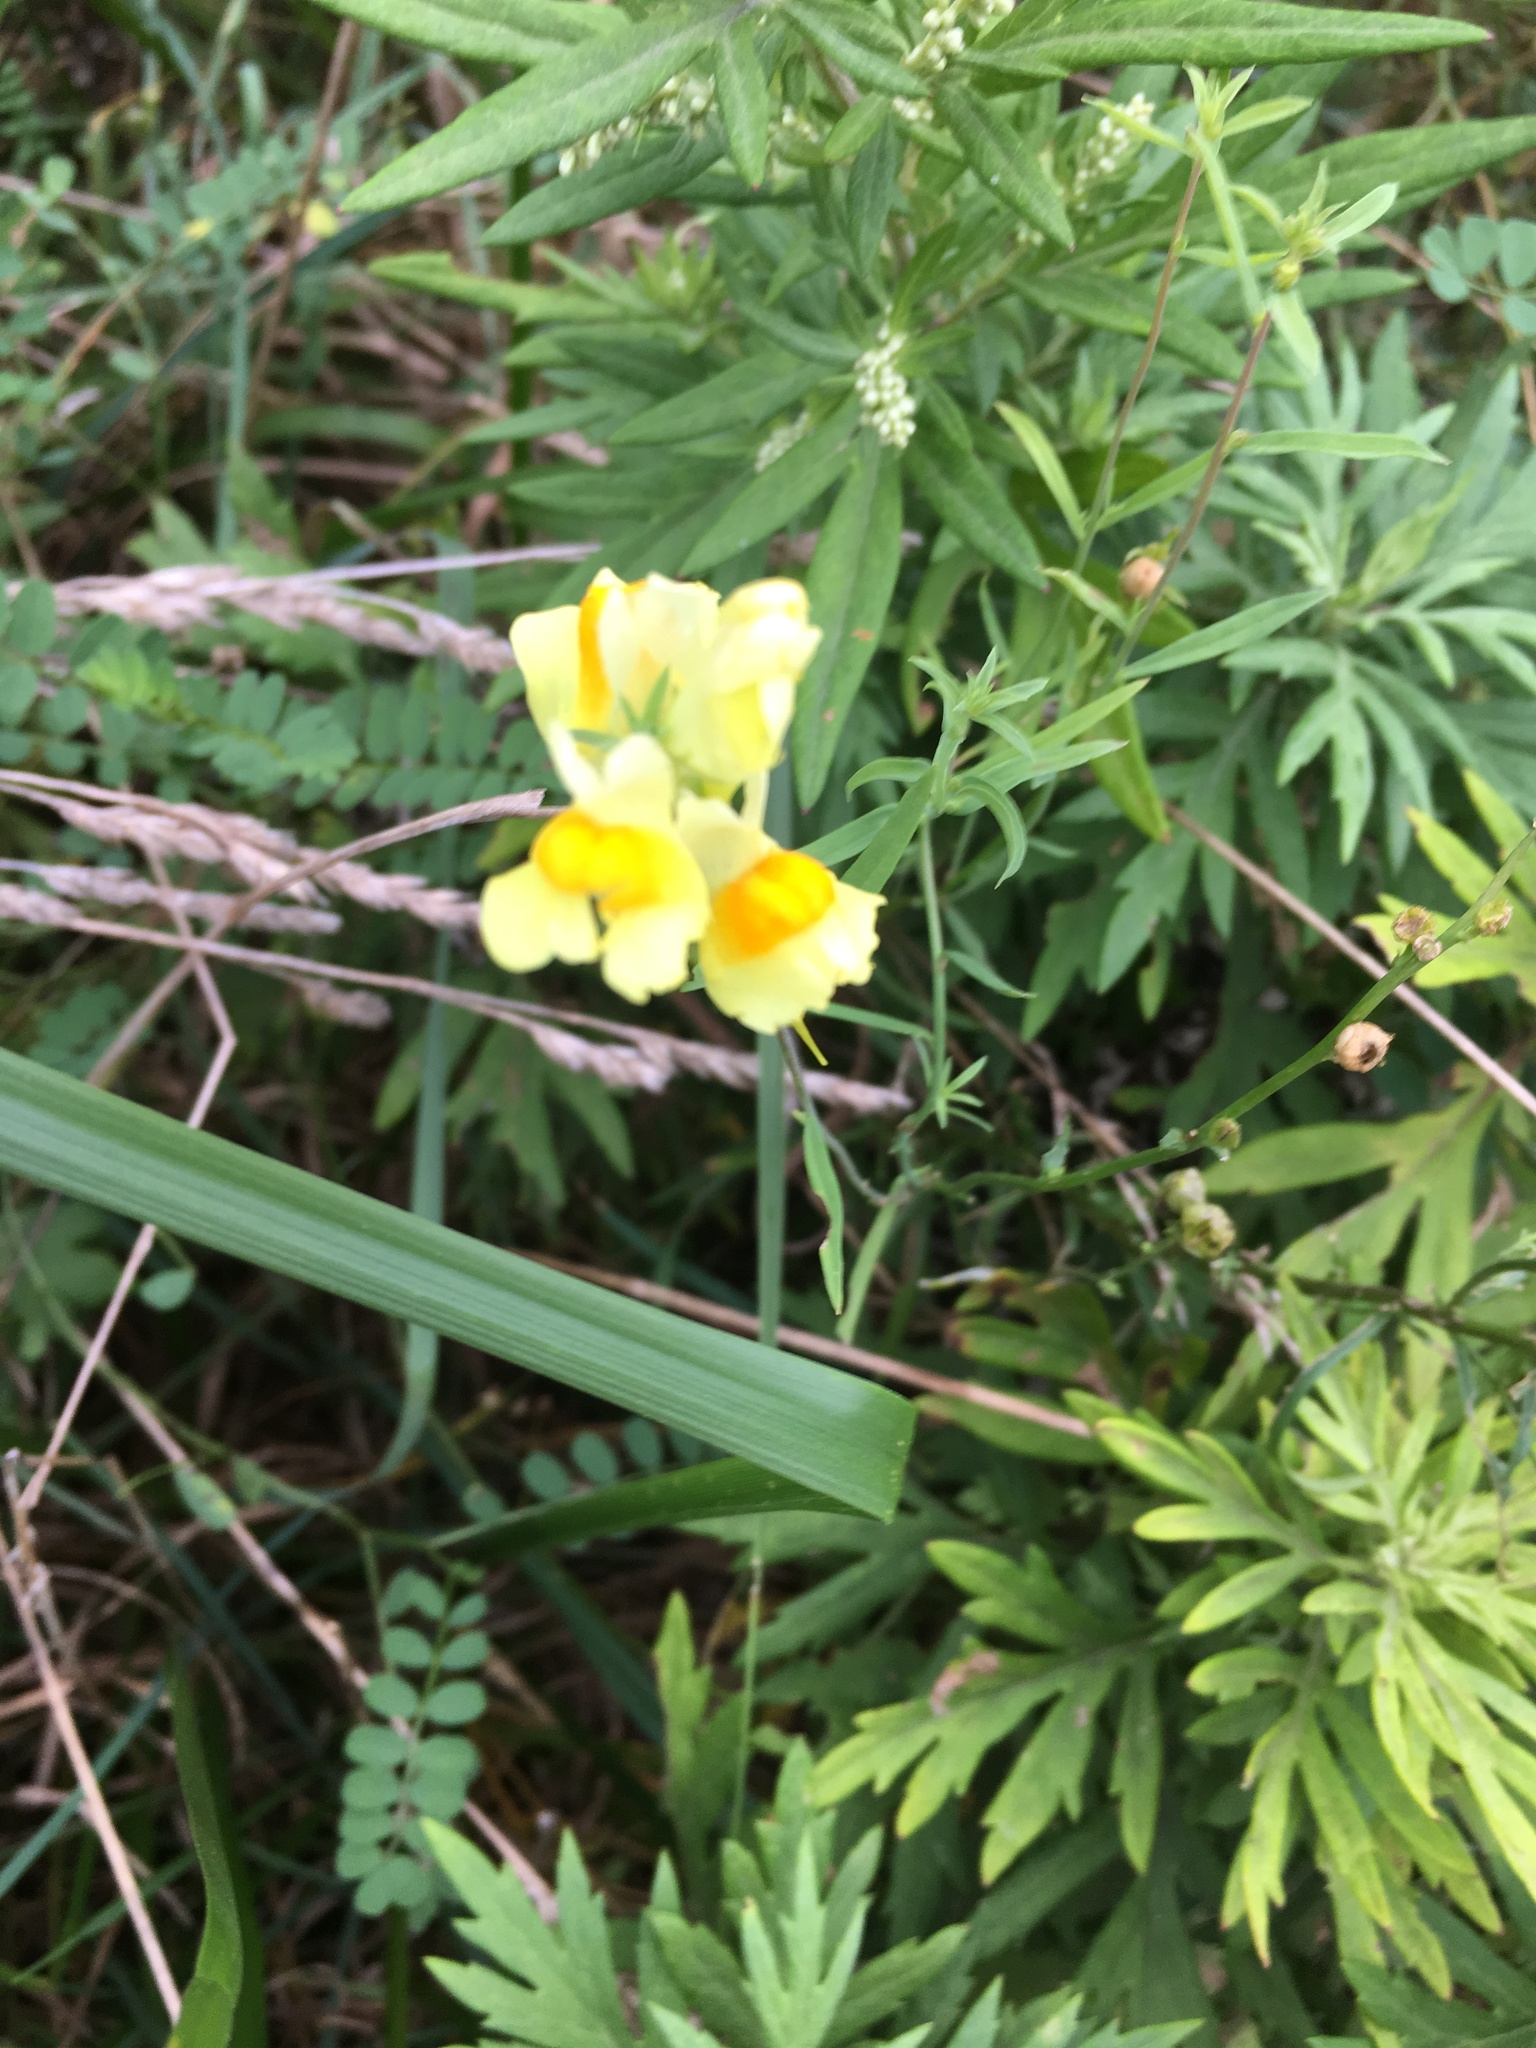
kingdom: Plantae
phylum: Tracheophyta
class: Magnoliopsida
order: Lamiales
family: Plantaginaceae
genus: Linaria
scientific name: Linaria vulgaris
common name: Butter and eggs
